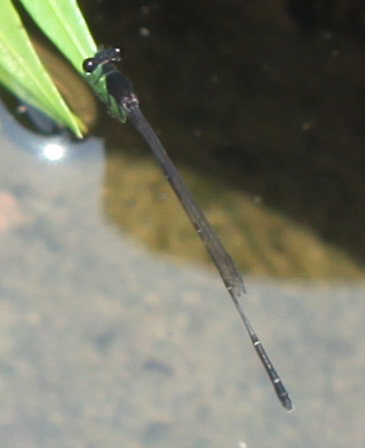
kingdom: Animalia
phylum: Arthropoda
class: Insecta
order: Odonata
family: Platycnemididae
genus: Prodasineura
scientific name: Prodasineura autumnalis
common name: Black threadtail
